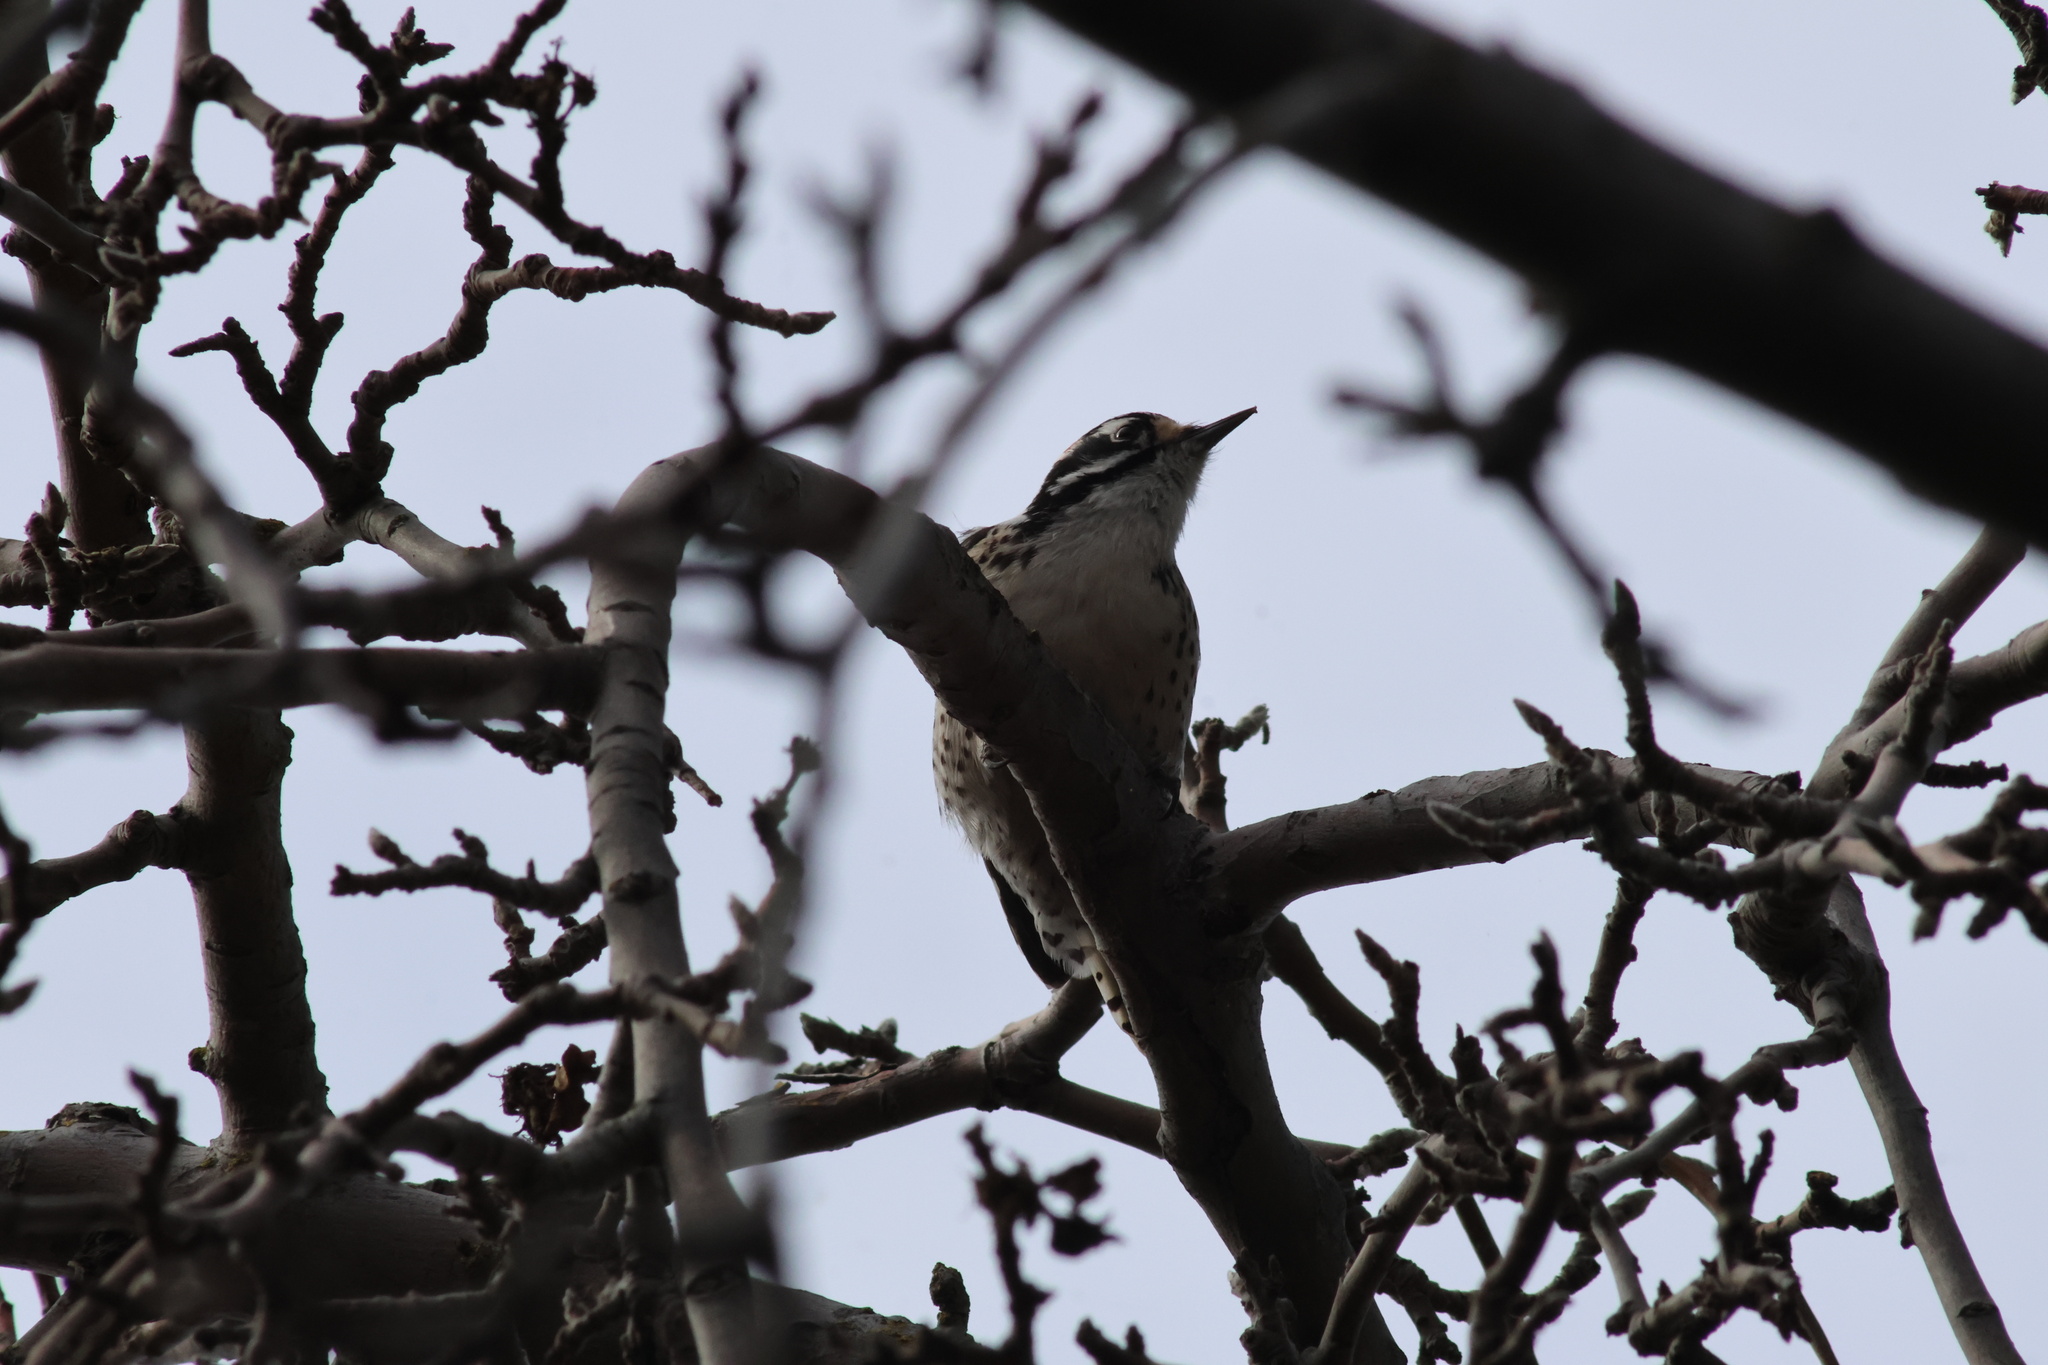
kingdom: Animalia
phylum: Chordata
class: Aves
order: Piciformes
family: Picidae
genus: Dryobates
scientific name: Dryobates nuttallii
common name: Nuttall's woodpecker
